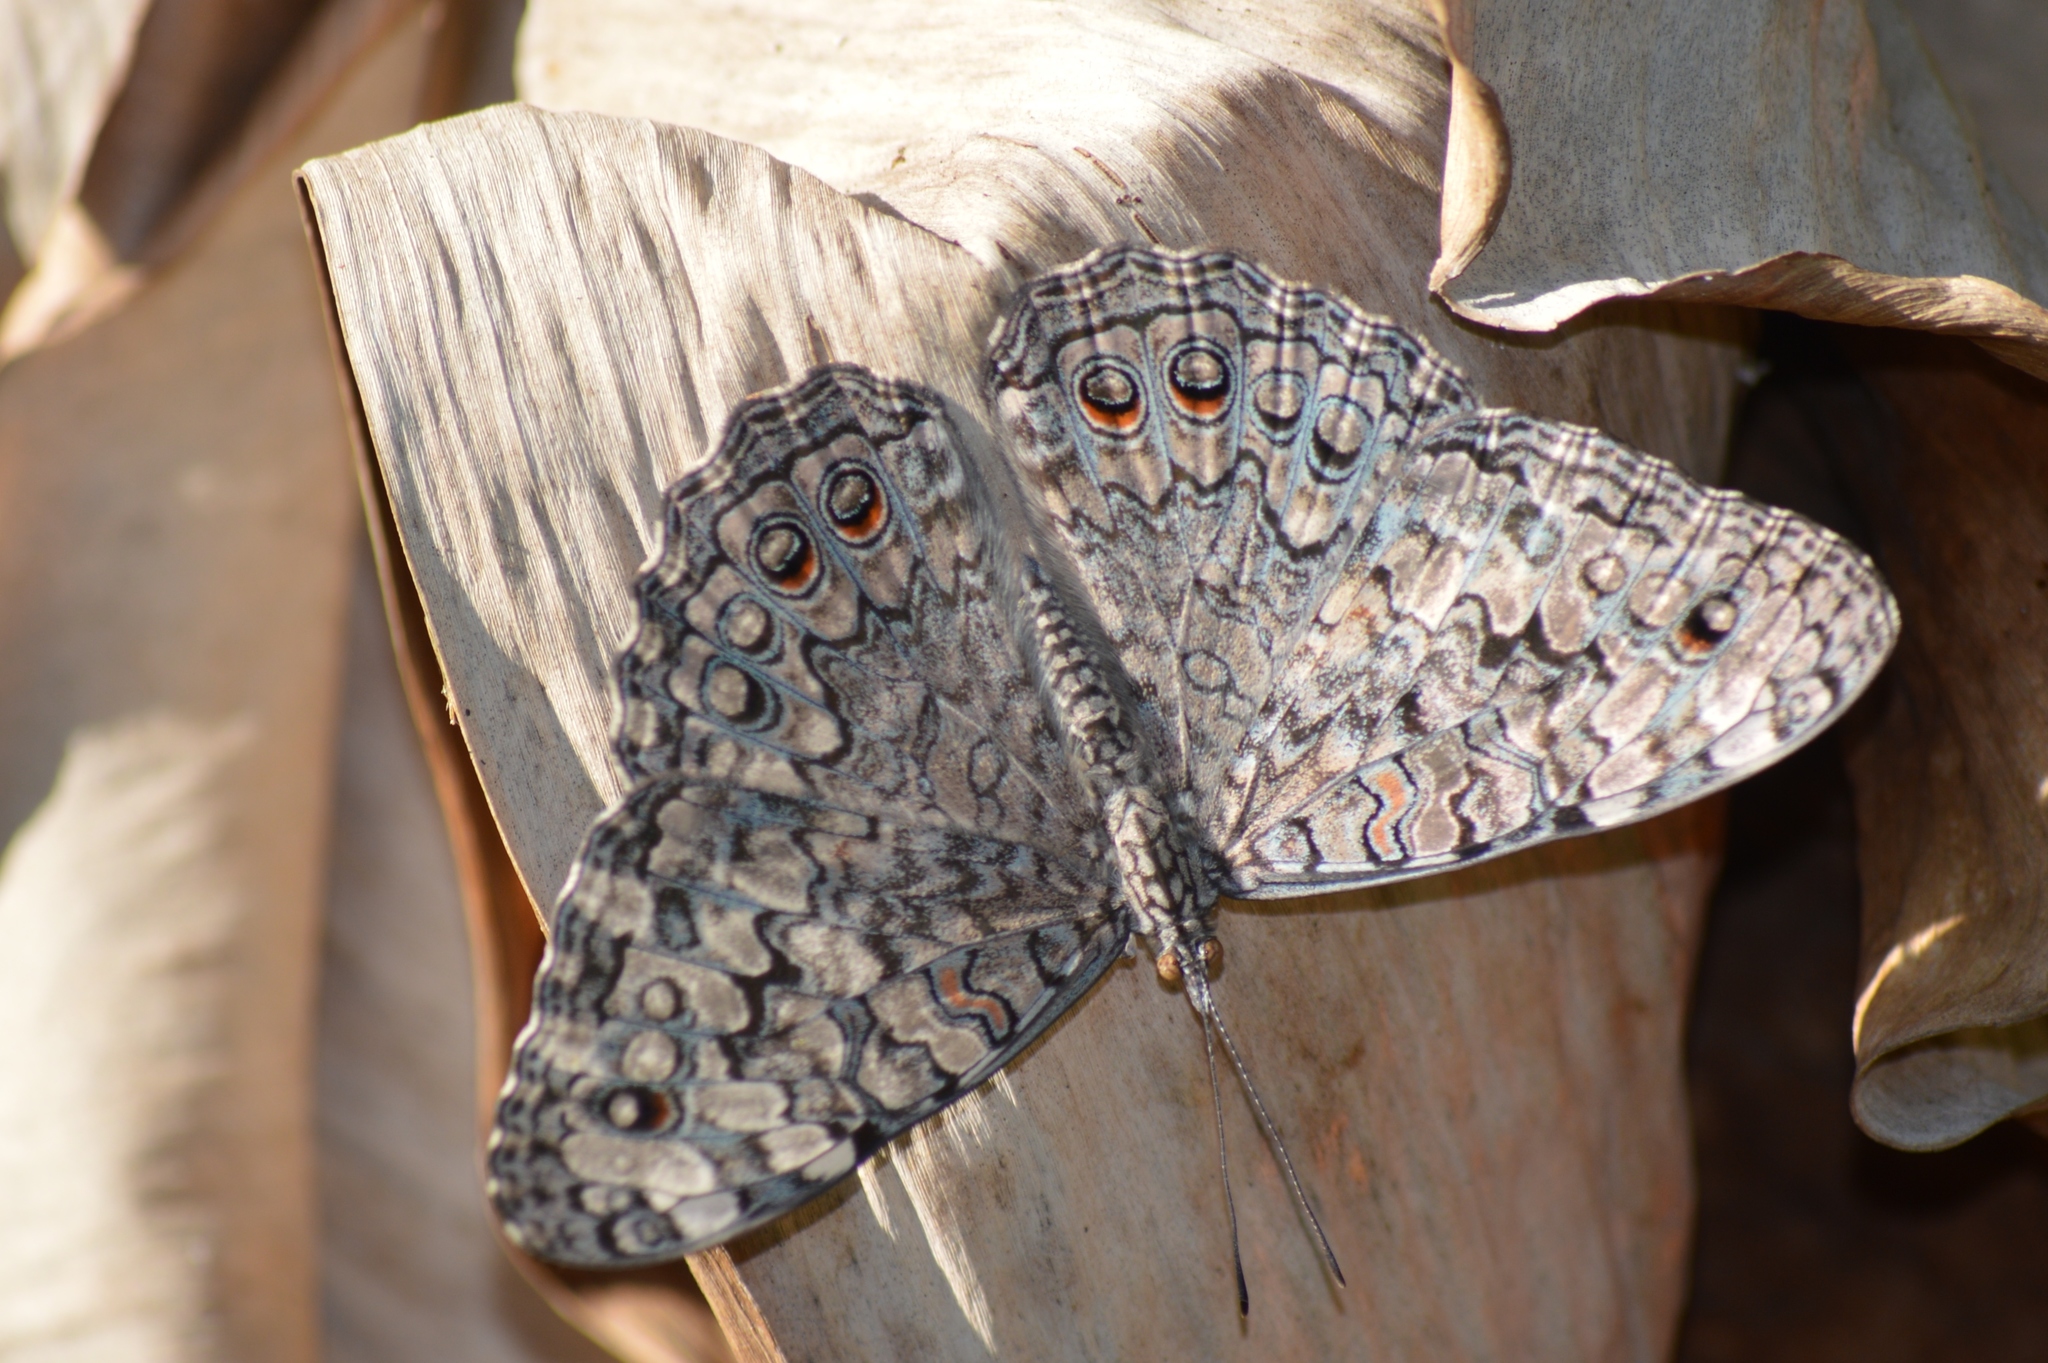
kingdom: Animalia
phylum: Arthropoda
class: Insecta
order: Lepidoptera
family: Nymphalidae
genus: Hamadryas
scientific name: Hamadryas feronia
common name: Variable cracker
